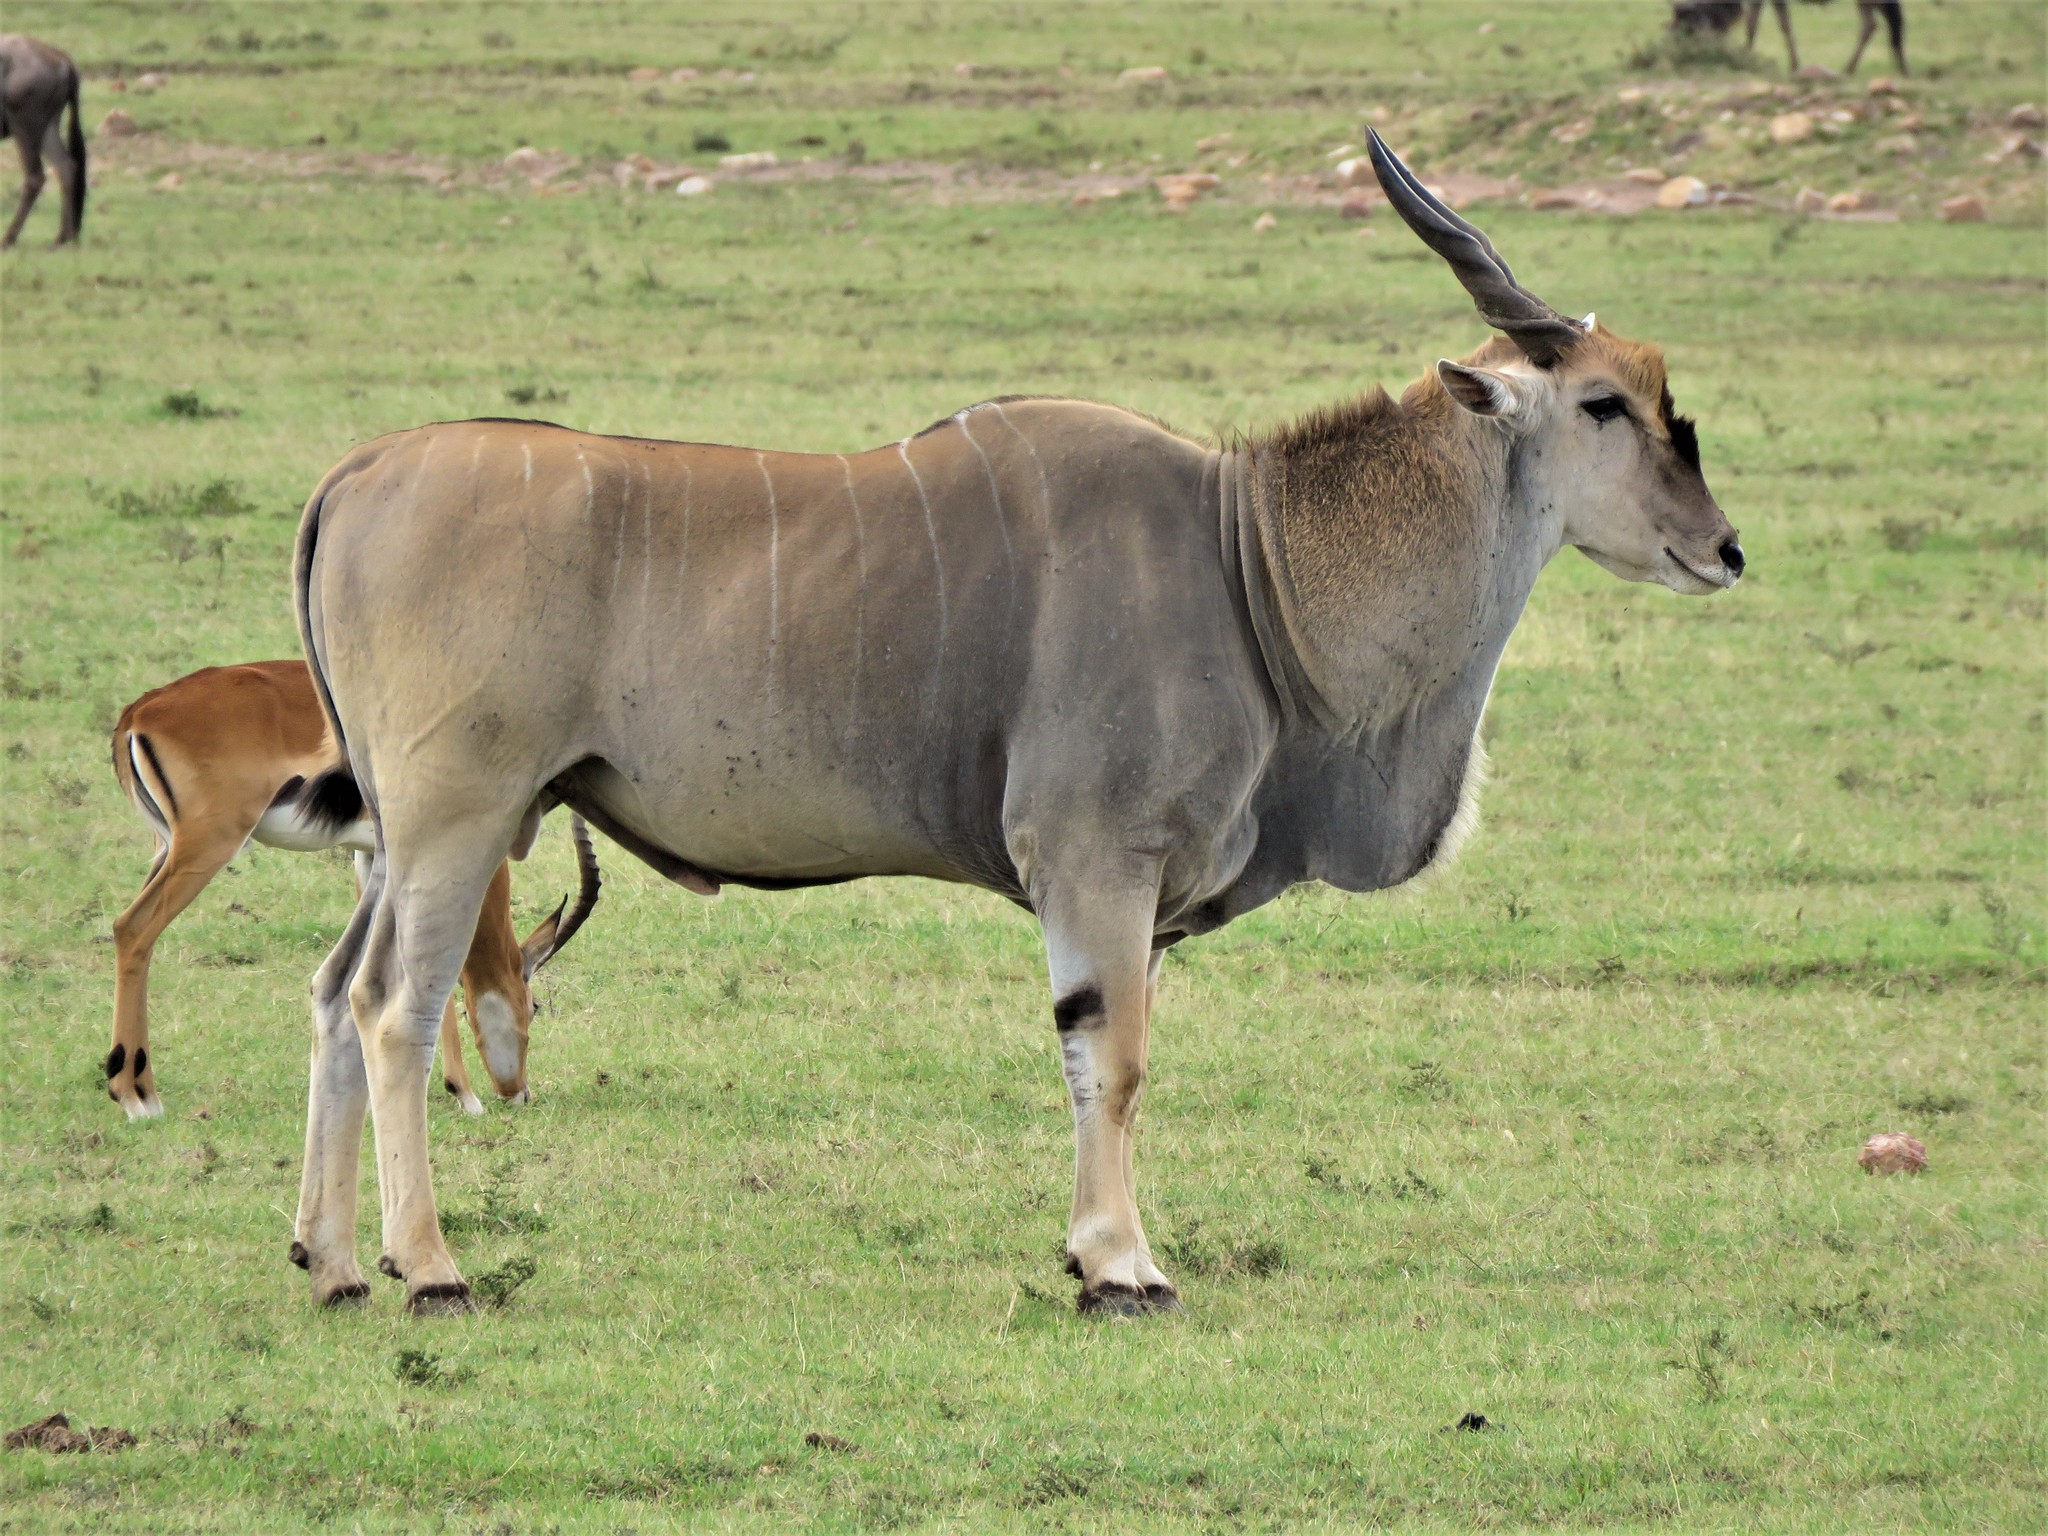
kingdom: Animalia
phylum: Chordata
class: Mammalia
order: Artiodactyla
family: Bovidae
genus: Taurotragus
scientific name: Taurotragus oryx
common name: Common eland
